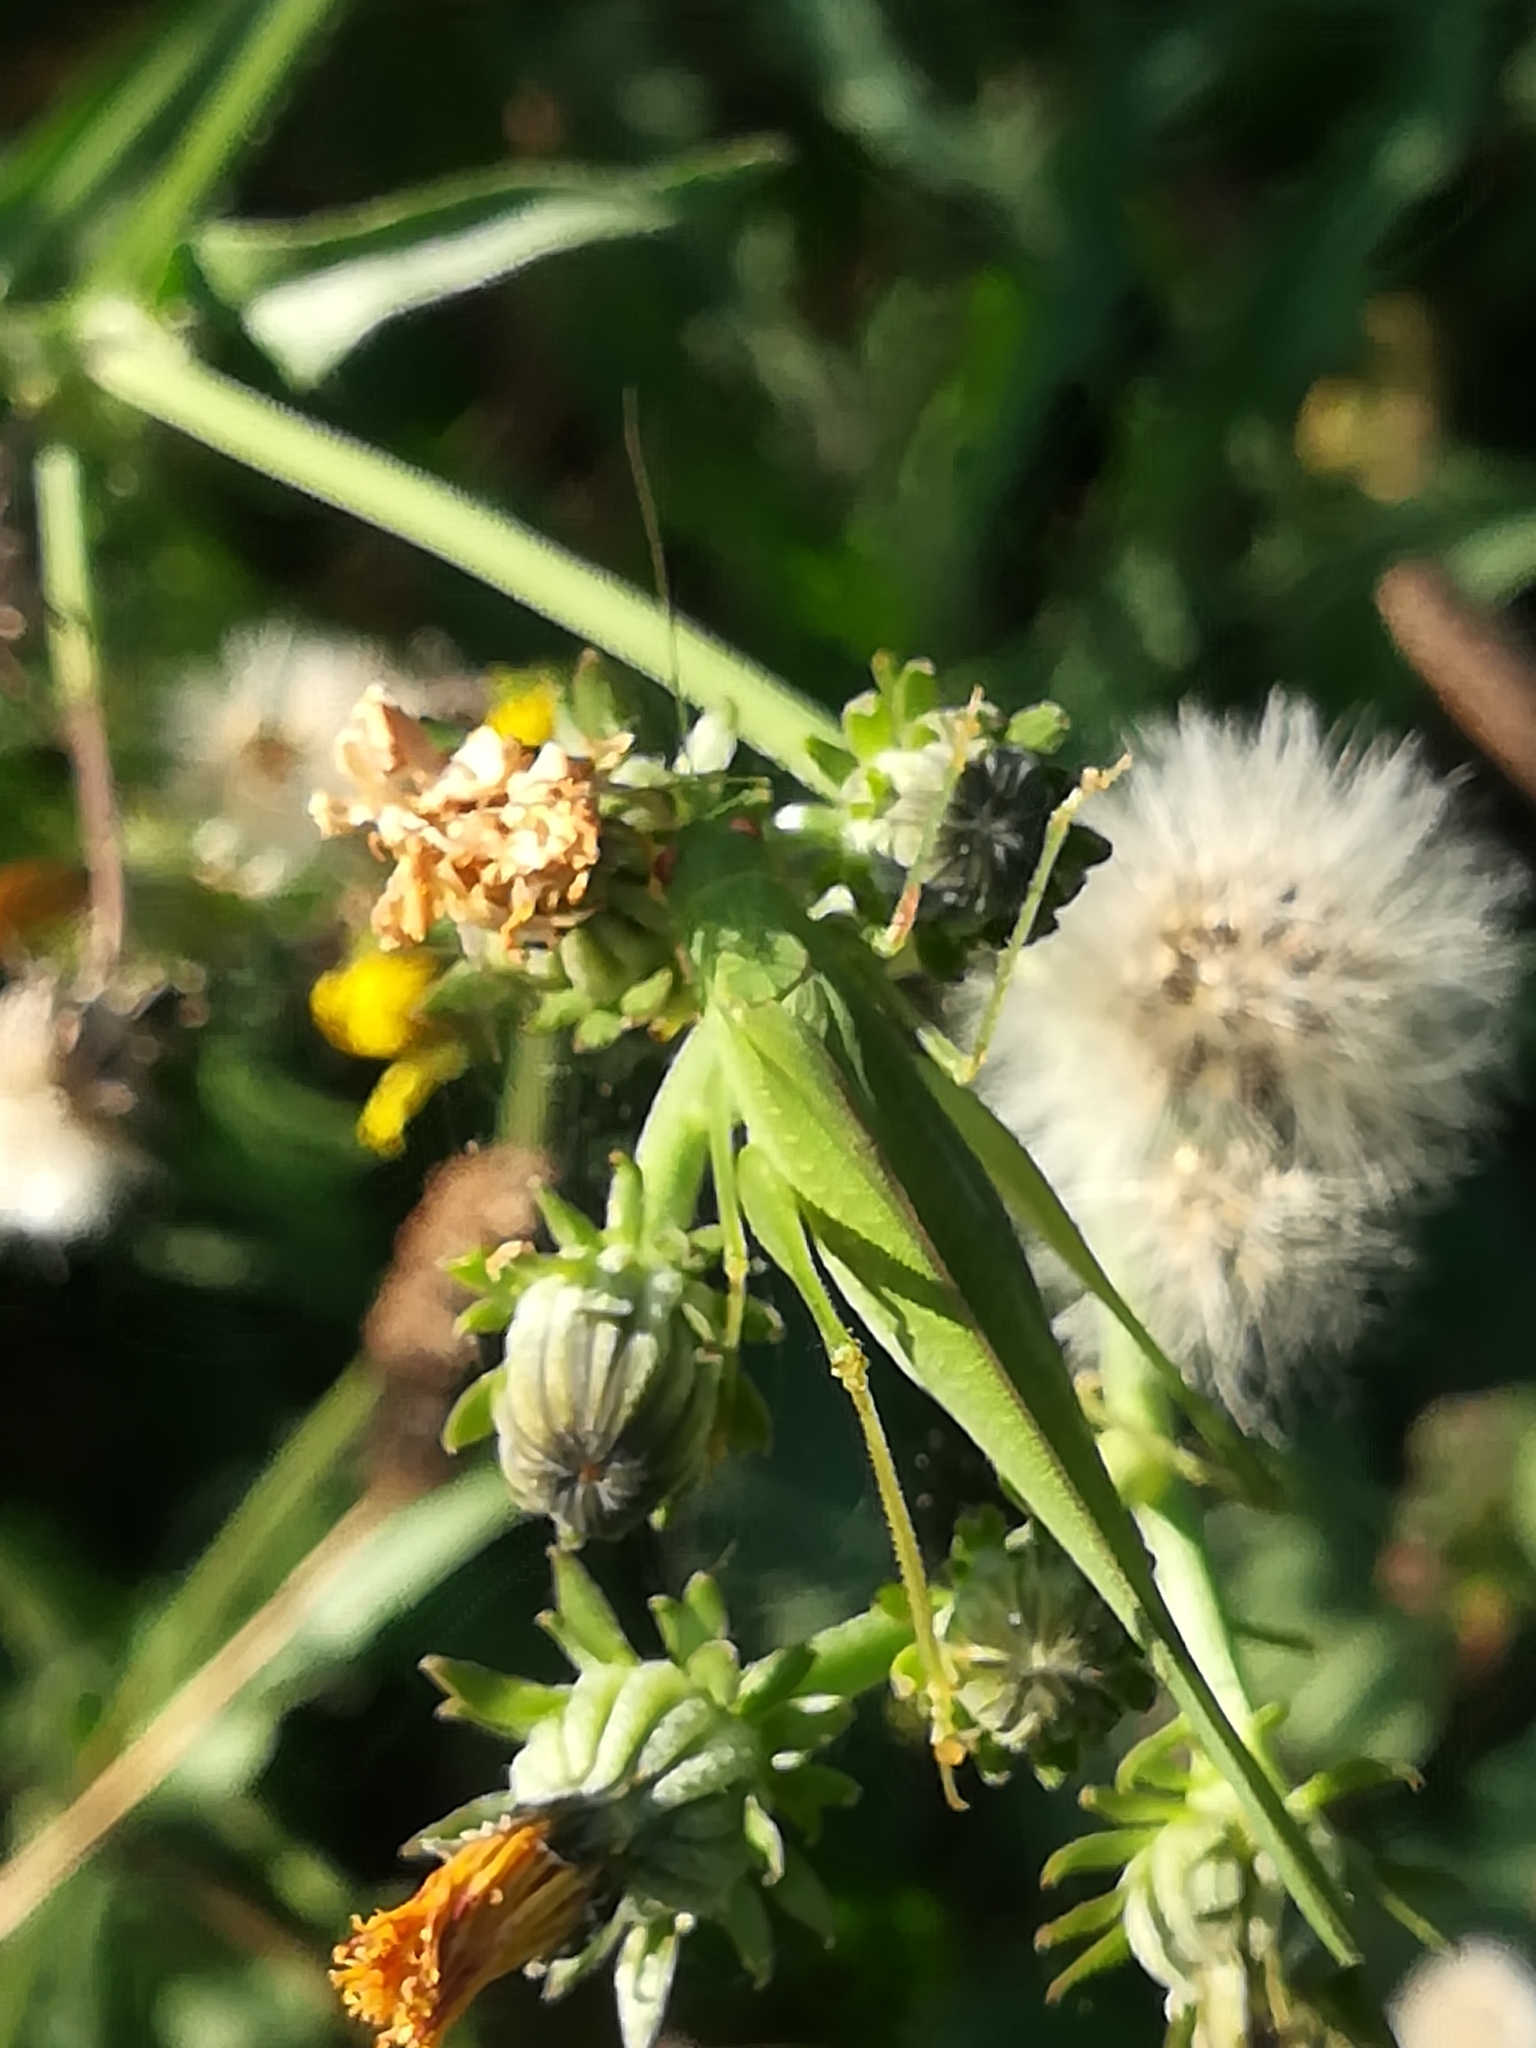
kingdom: Animalia
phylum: Arthropoda
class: Insecta
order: Orthoptera
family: Tettigoniidae
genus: Phaneroptera
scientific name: Phaneroptera nana
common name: Southern sickle bush-cricket
